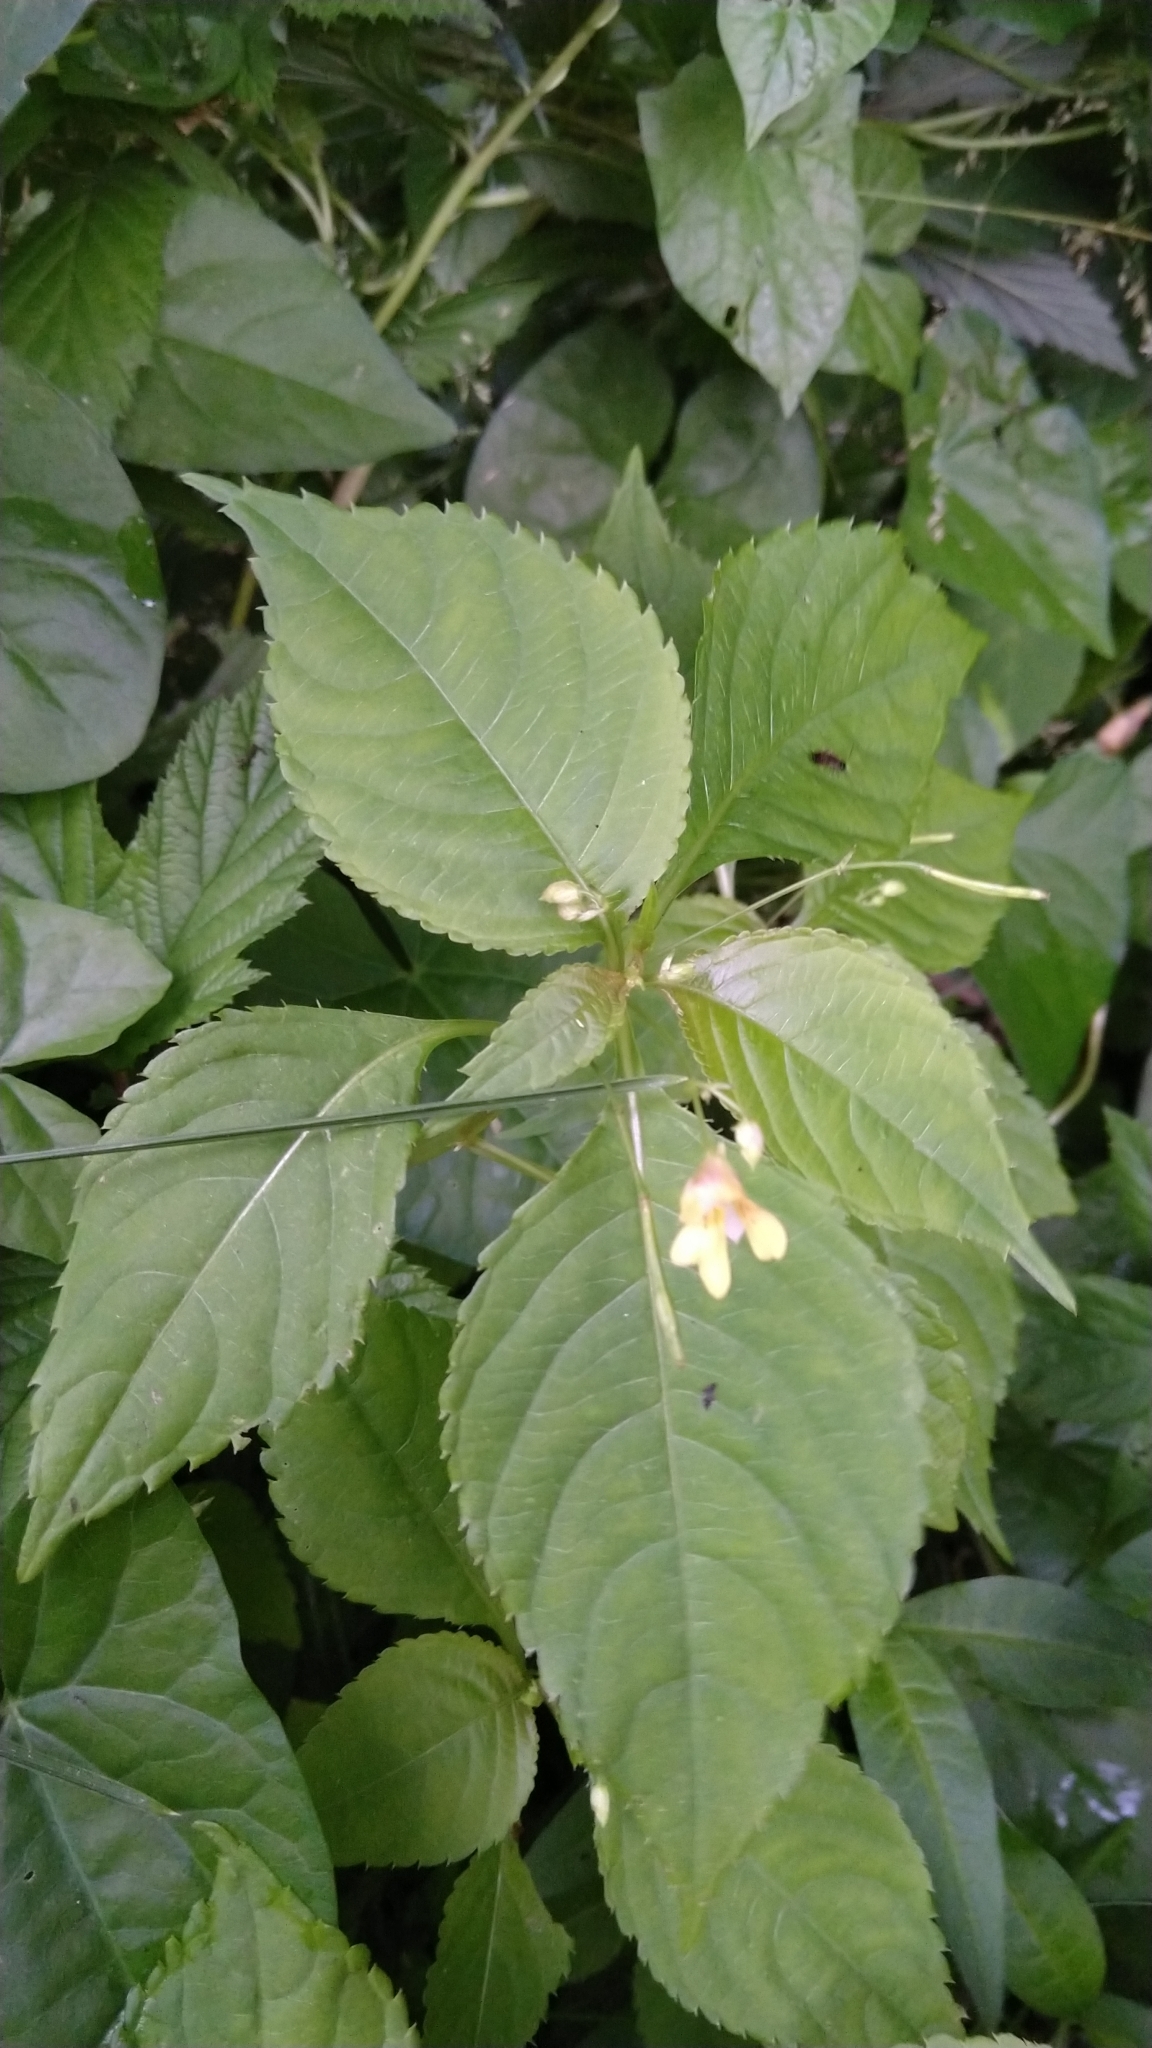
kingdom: Plantae
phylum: Tracheophyta
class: Magnoliopsida
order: Ericales
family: Balsaminaceae
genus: Impatiens
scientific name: Impatiens parviflora
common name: Small balsam
